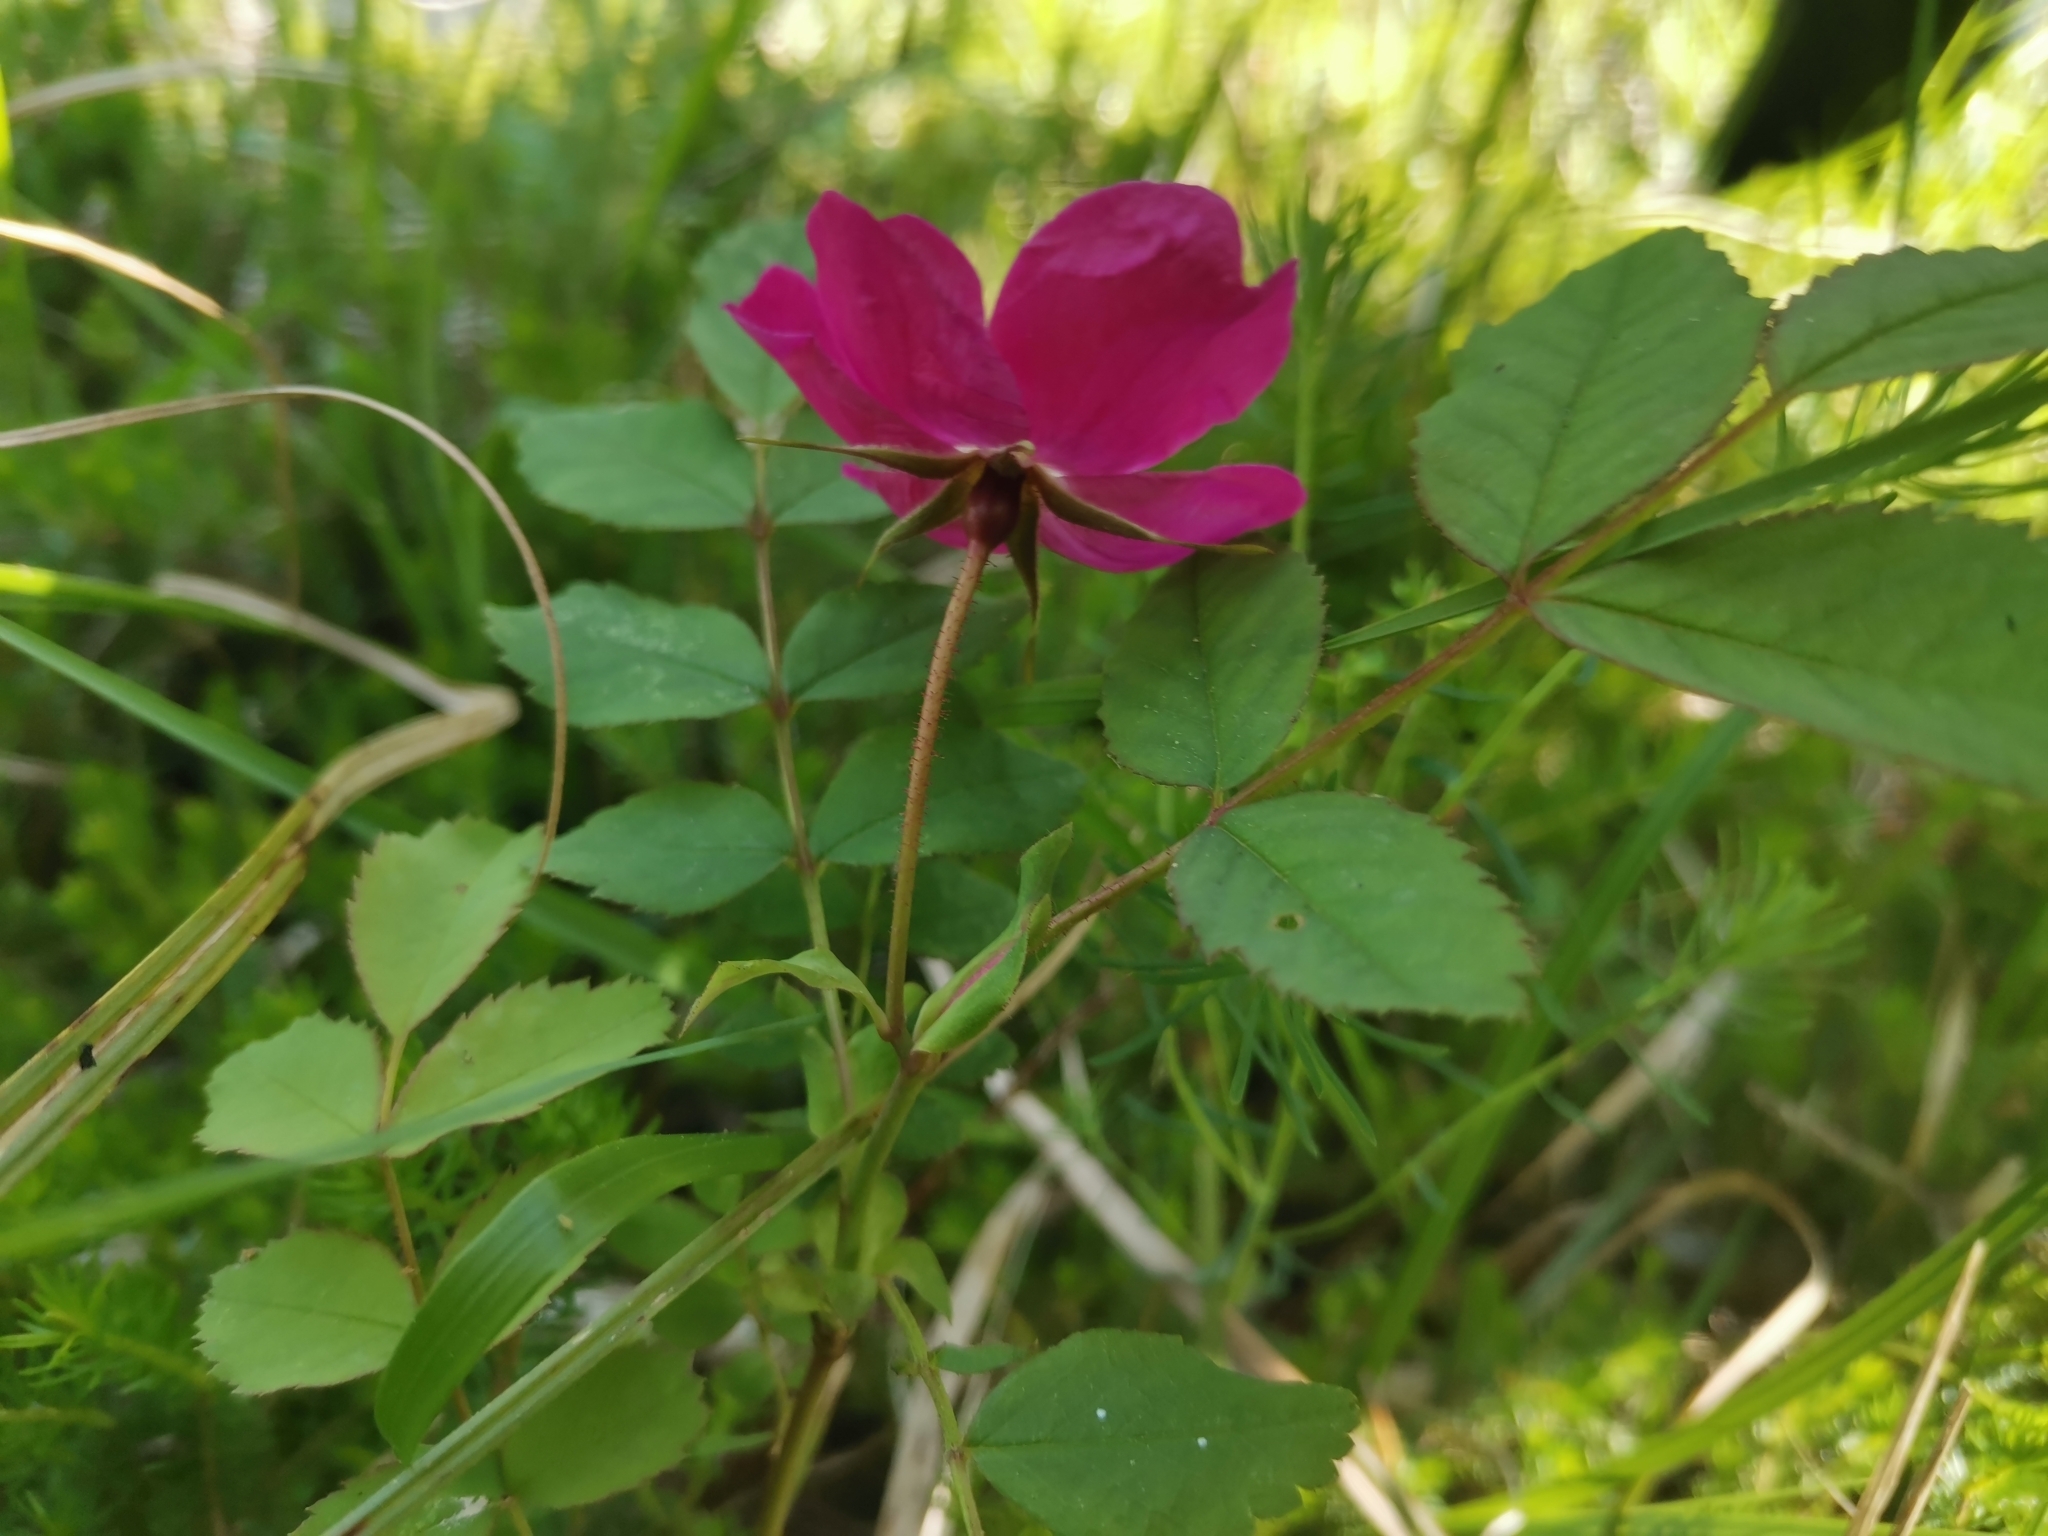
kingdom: Plantae
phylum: Tracheophyta
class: Magnoliopsida
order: Rosales
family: Rosaceae
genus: Rosa
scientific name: Rosa pendulina
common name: Alpine rose
